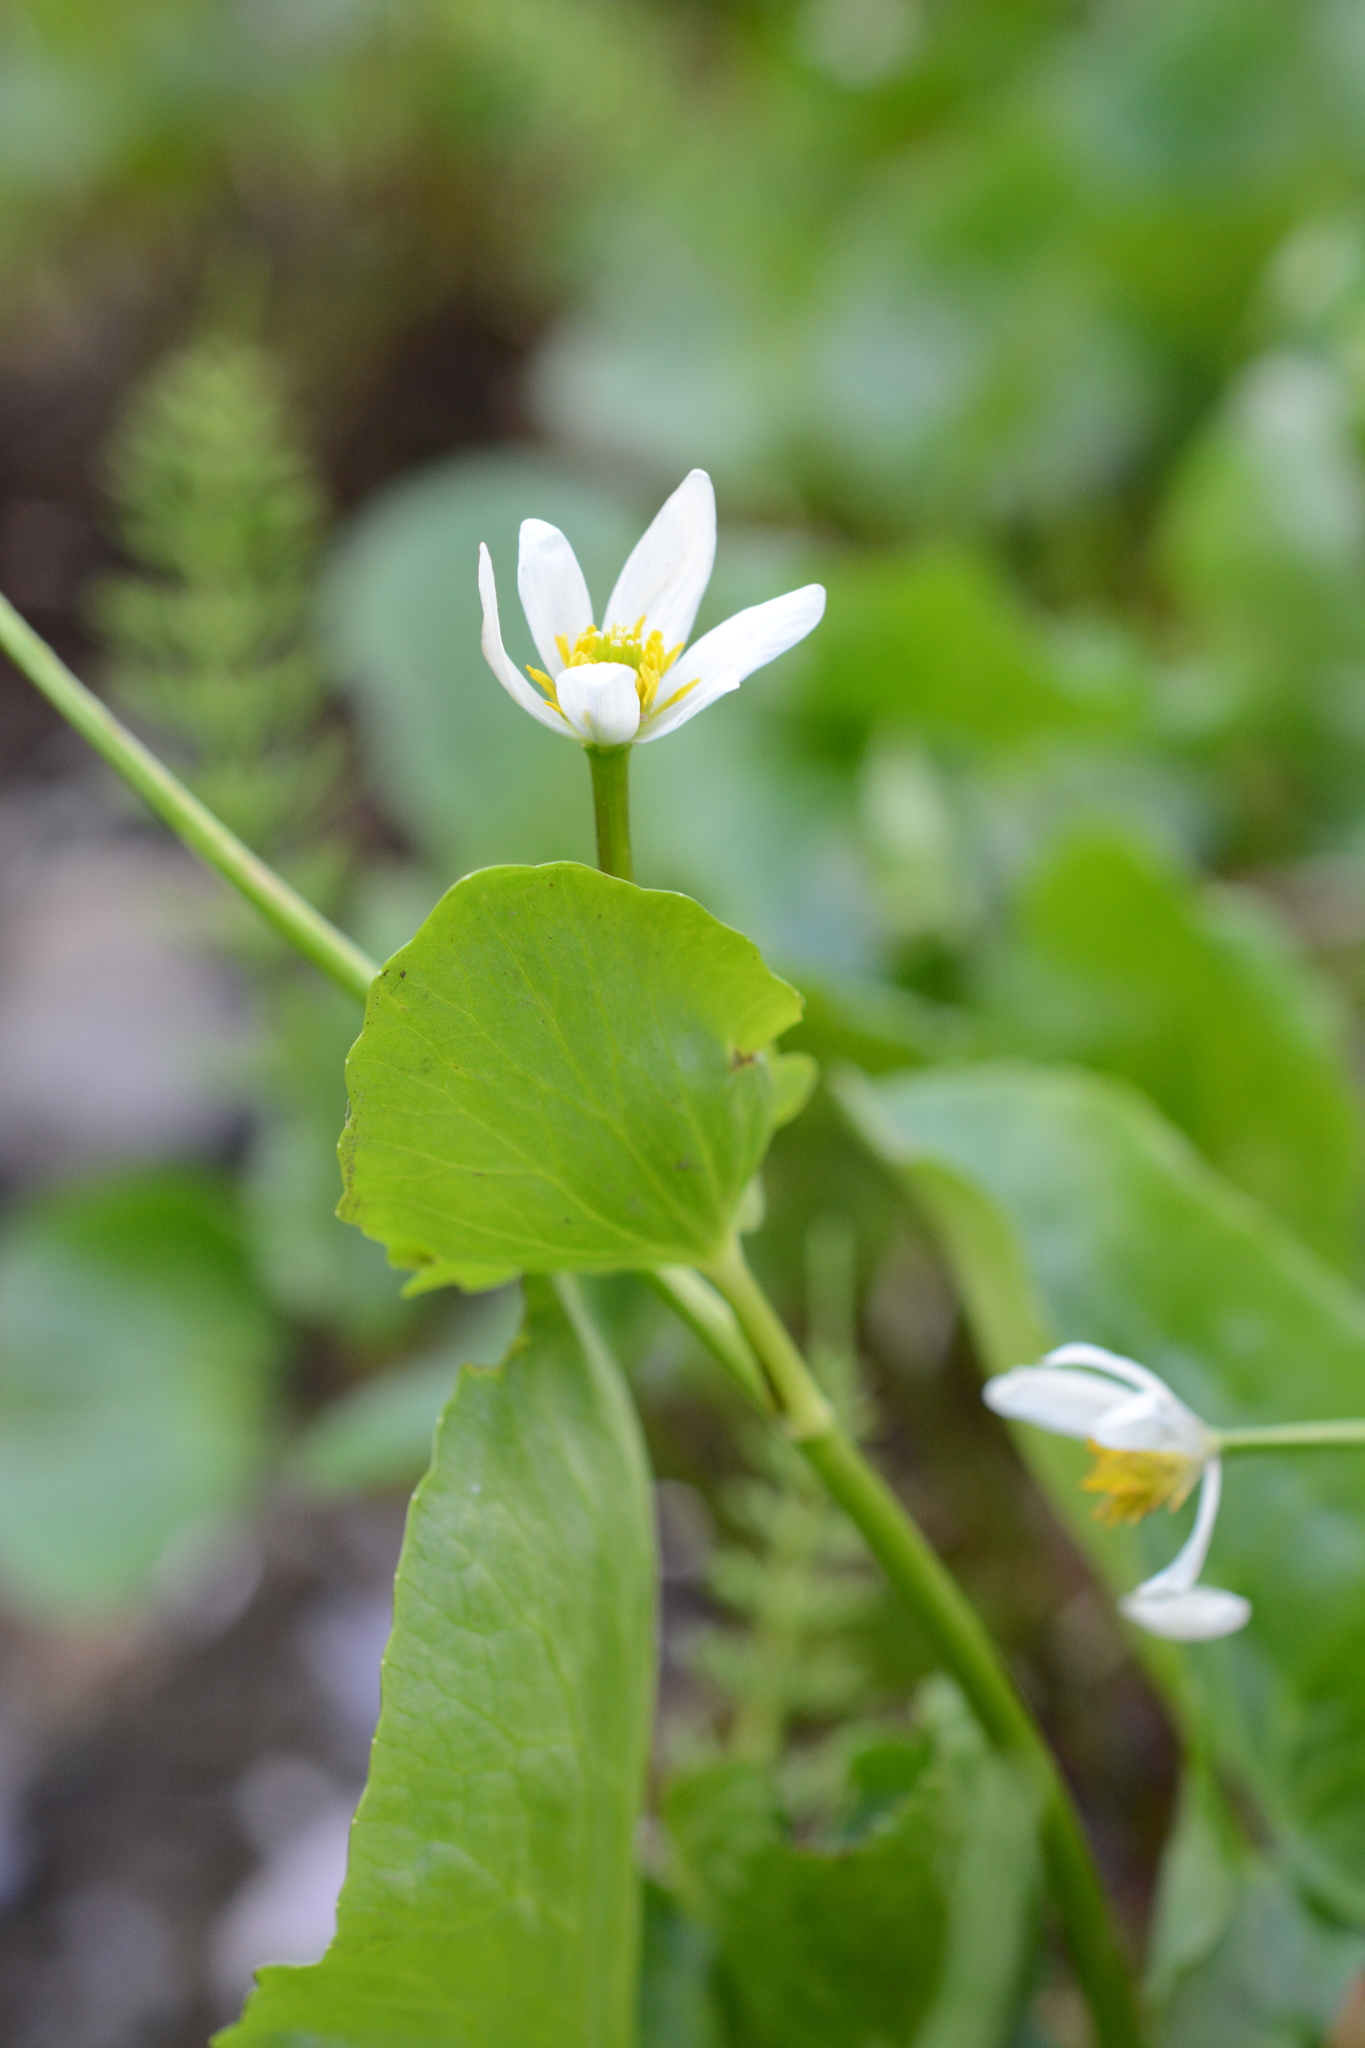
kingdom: Plantae
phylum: Tracheophyta
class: Magnoliopsida
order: Ranunculales
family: Ranunculaceae
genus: Caltha
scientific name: Caltha leptosepala
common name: Elkslip
